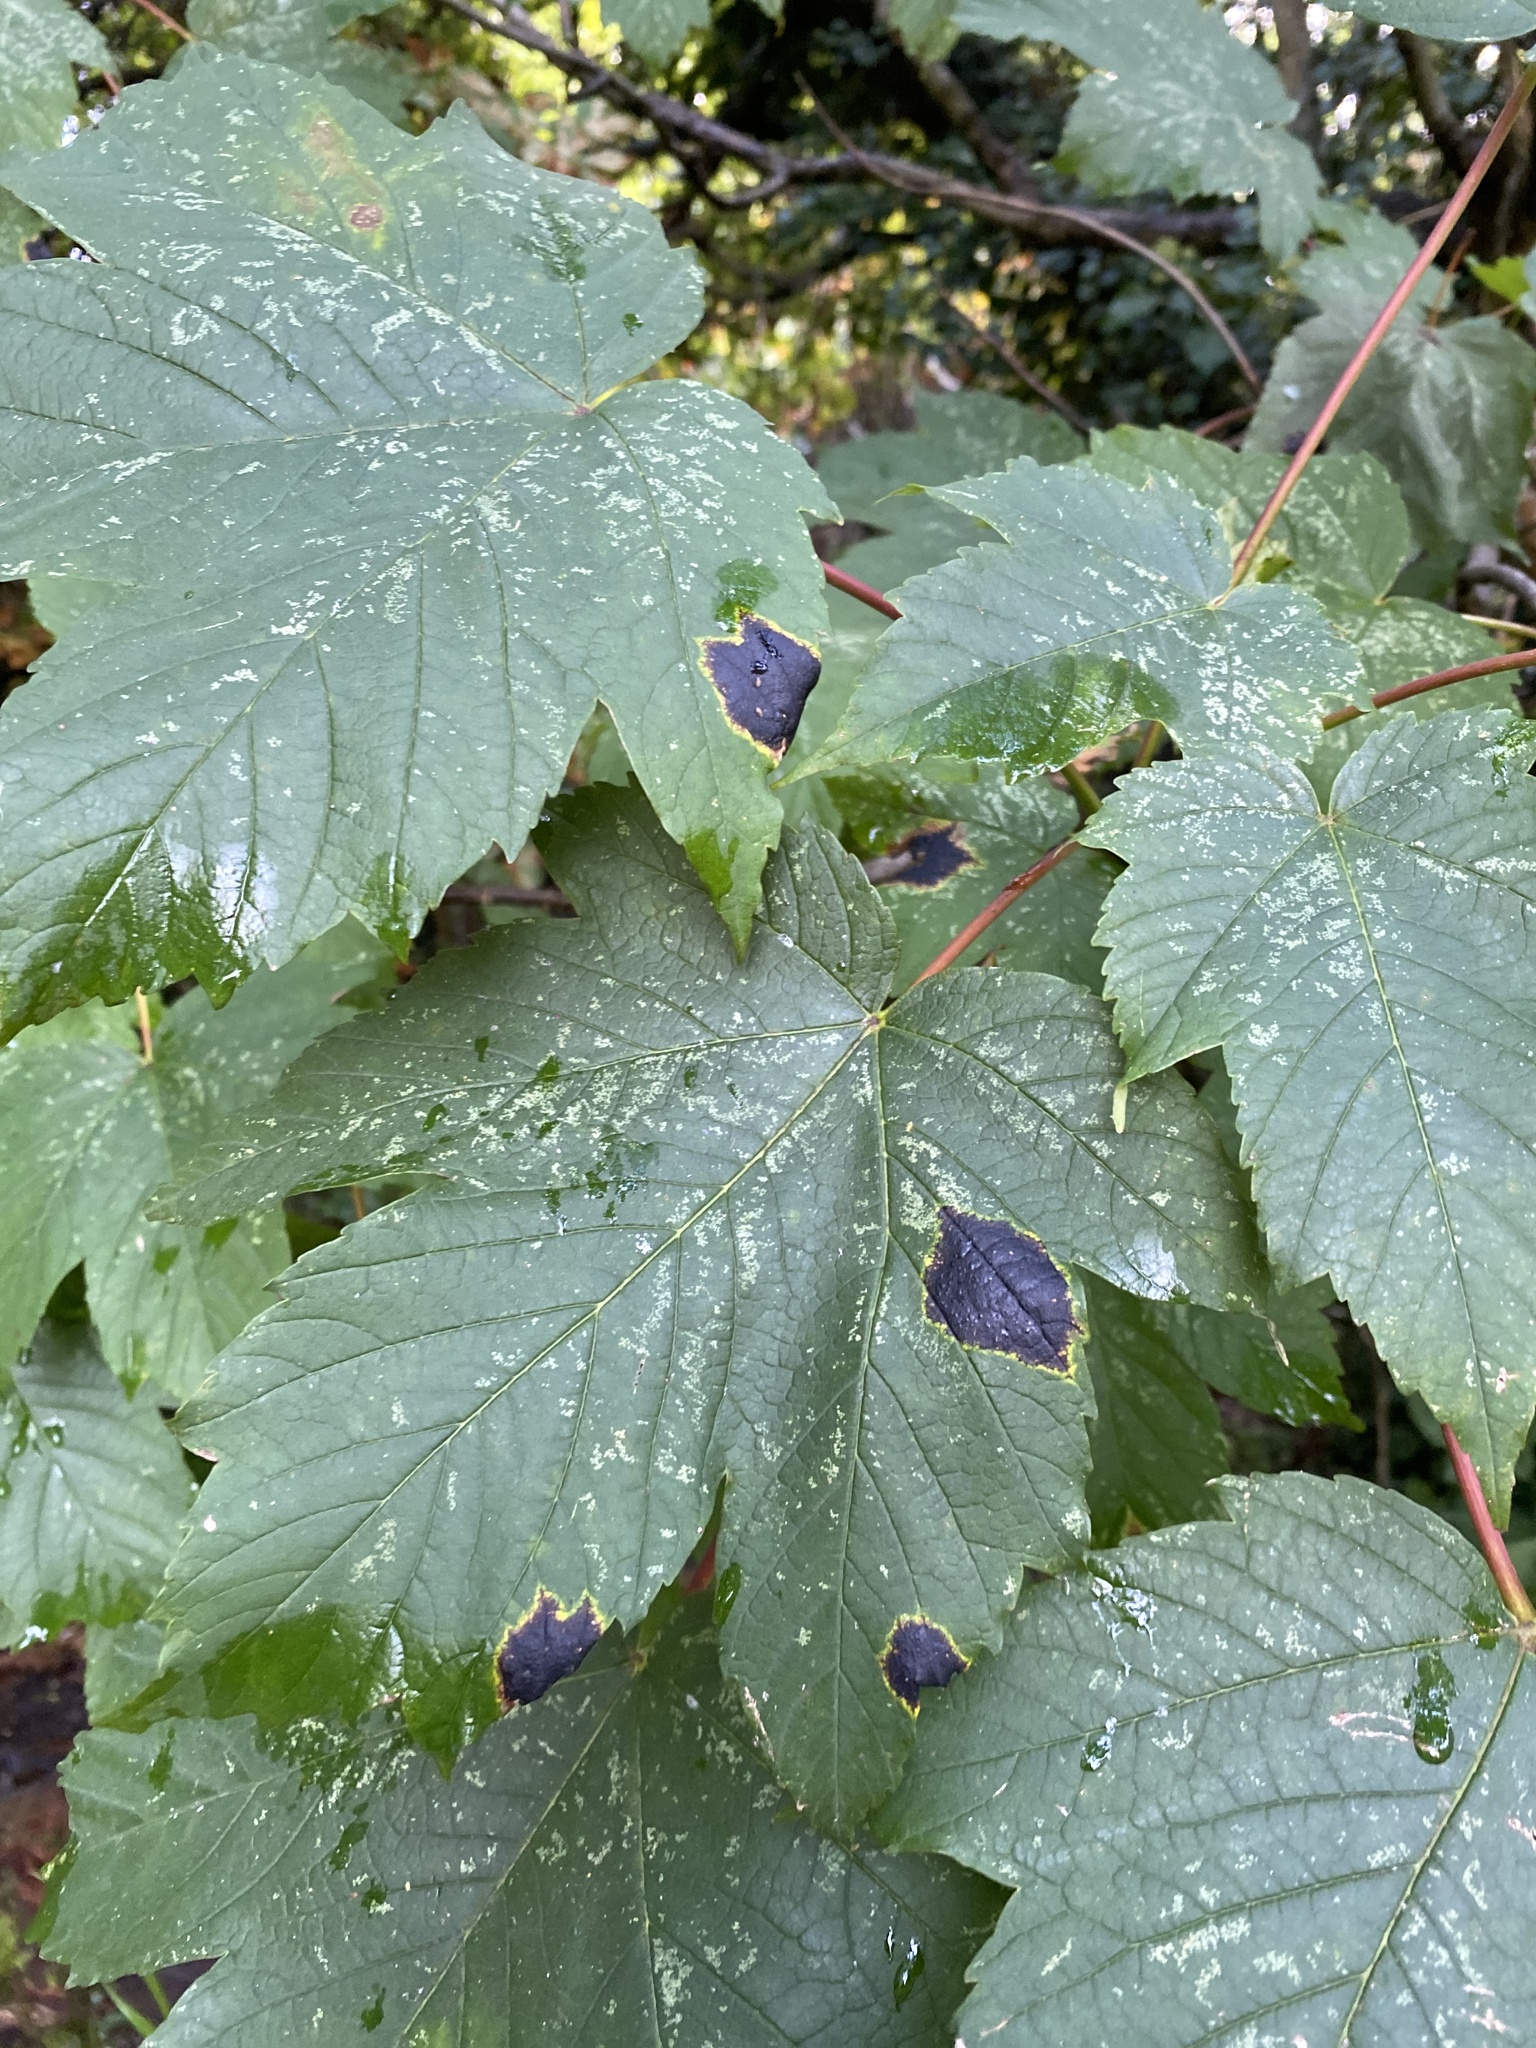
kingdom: Fungi
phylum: Ascomycota
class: Leotiomycetes
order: Rhytismatales
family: Rhytismataceae
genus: Rhytisma
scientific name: Rhytisma acerinum
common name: European tar spot
